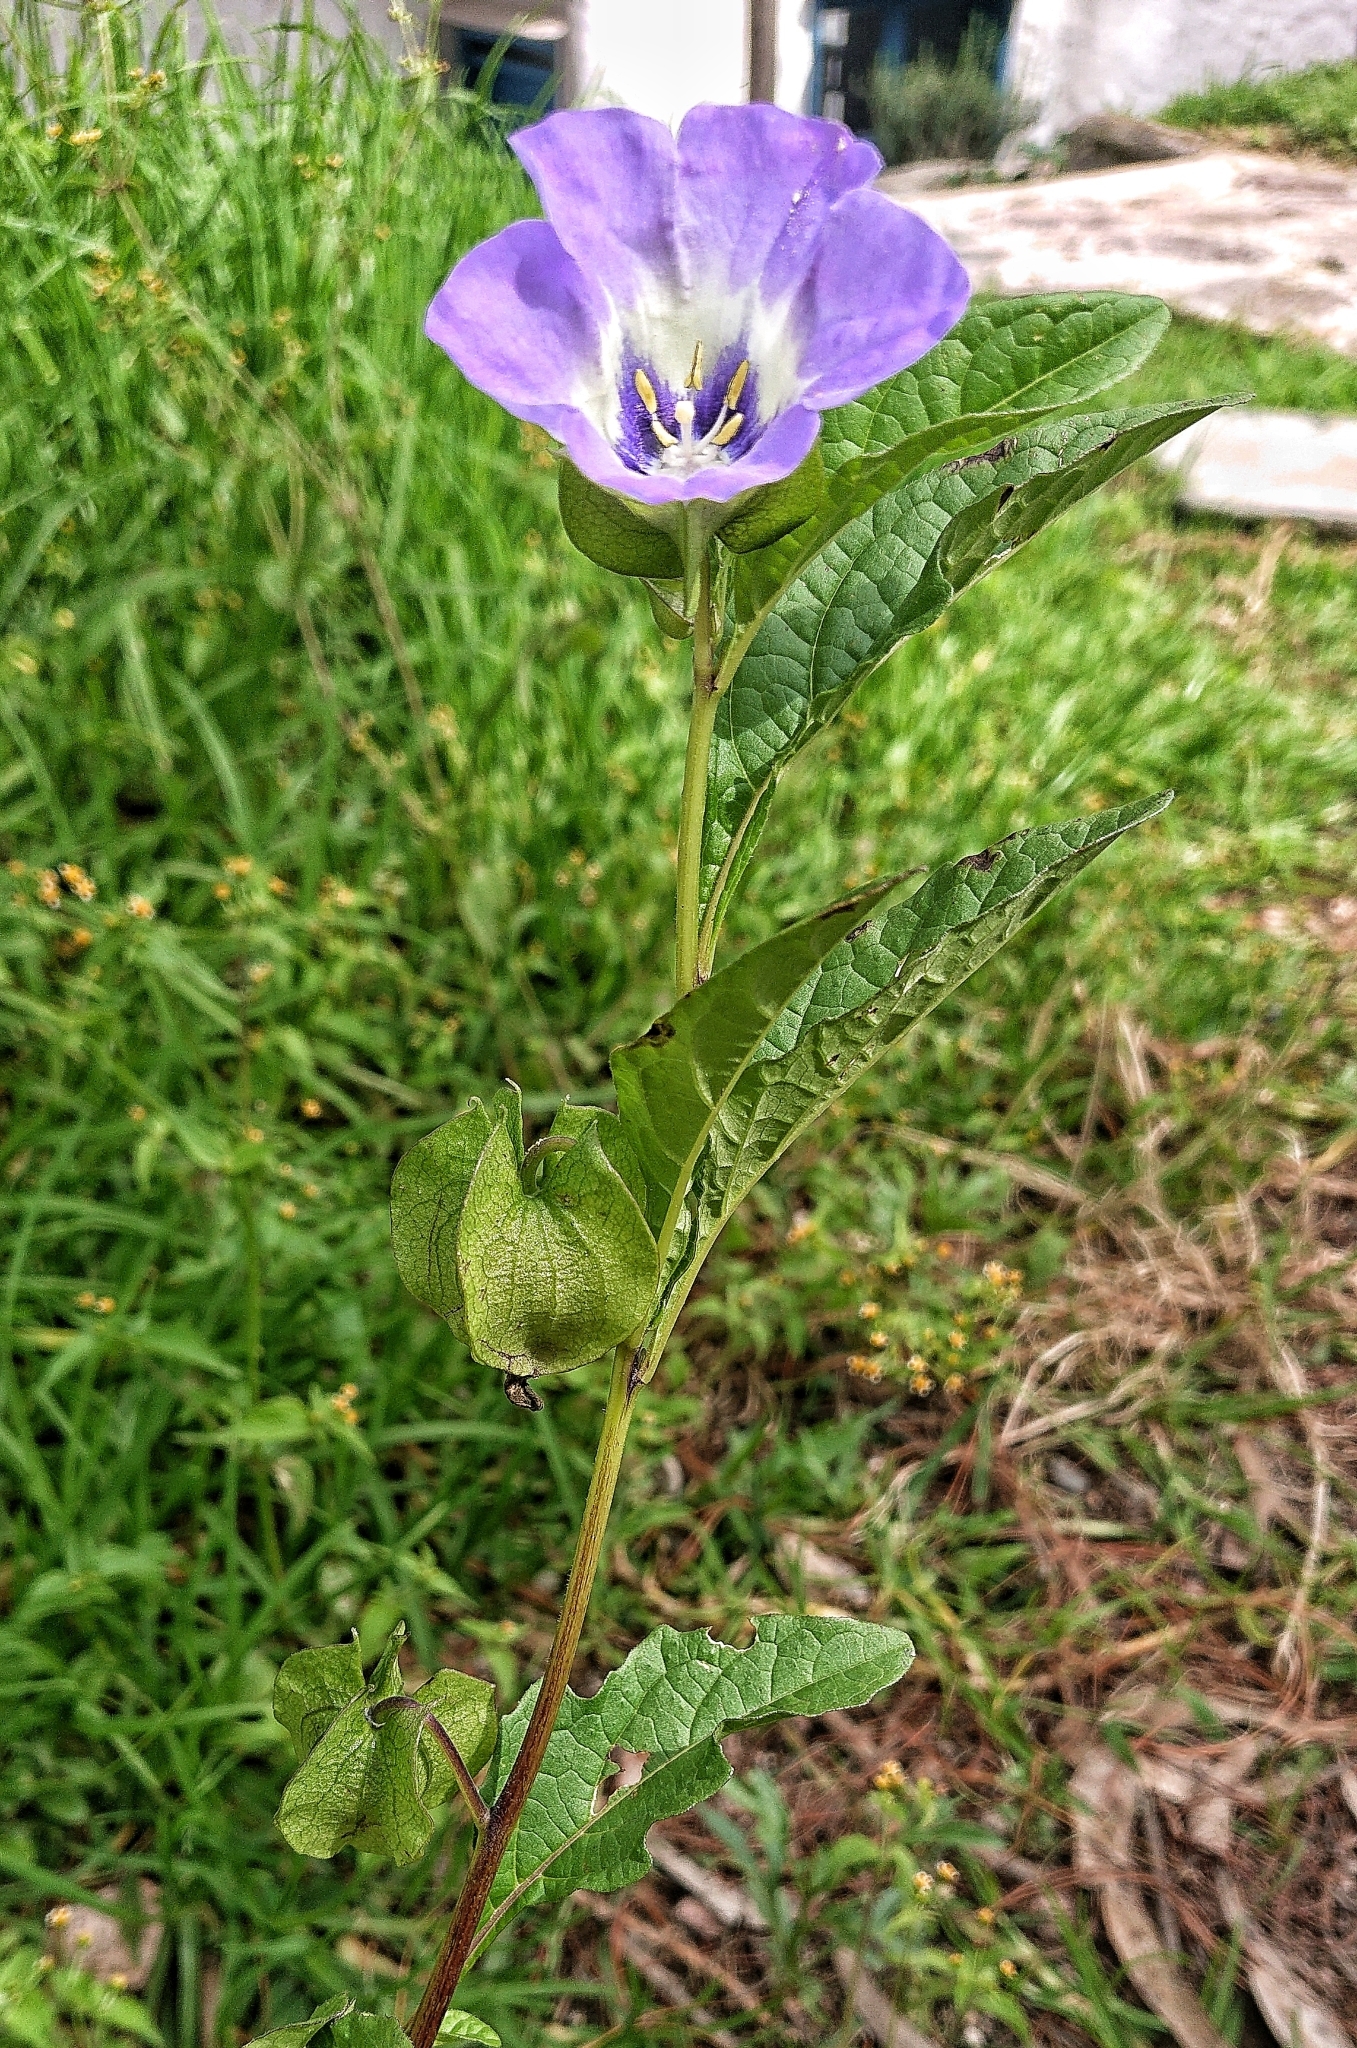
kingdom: Plantae
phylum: Tracheophyta
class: Magnoliopsida
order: Solanales
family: Solanaceae
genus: Nicandra
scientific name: Nicandra physalodes
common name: Apple-of-peru
